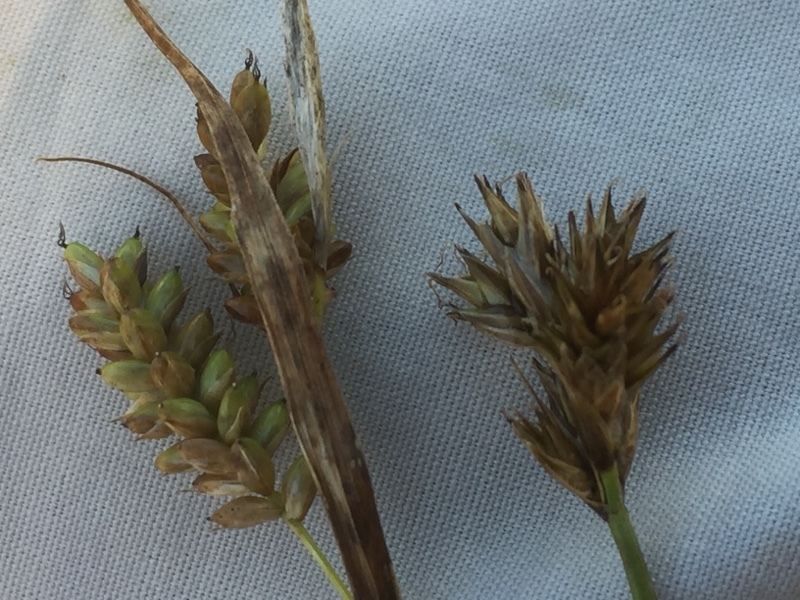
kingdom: Plantae
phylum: Tracheophyta
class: Liliopsida
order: Poales
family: Cyperaceae
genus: Carex
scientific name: Carex hostiana
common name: Tawny sedge
